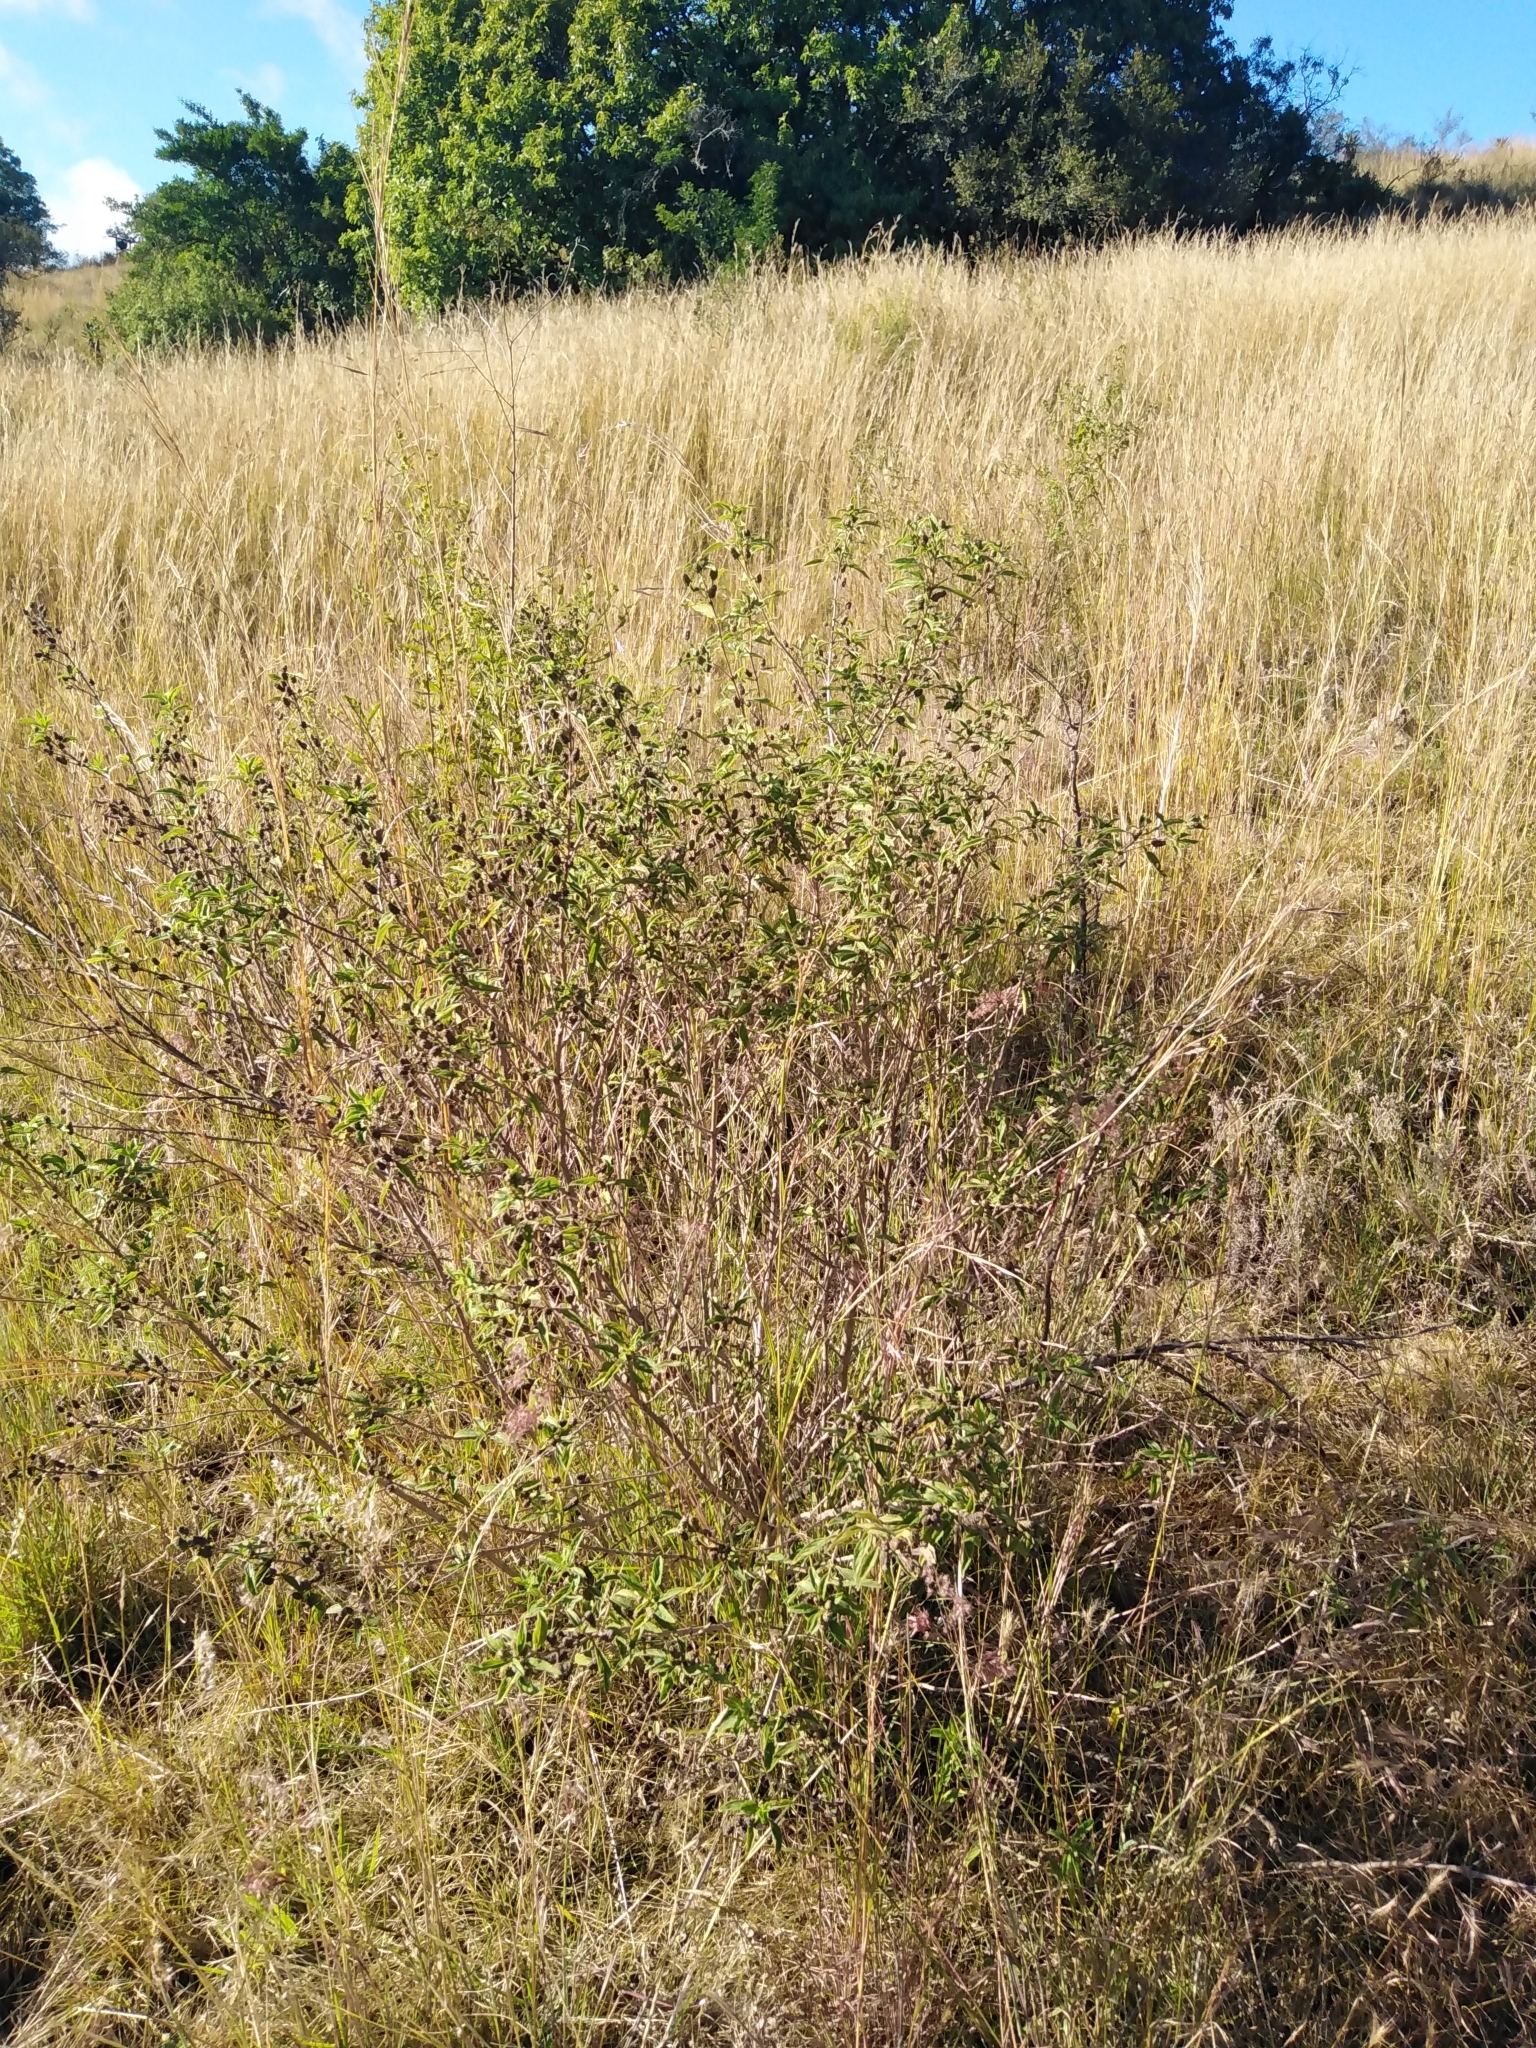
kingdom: Plantae
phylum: Tracheophyta
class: Magnoliopsida
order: Lamiales
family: Verbenaceae
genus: Lippia
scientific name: Lippia javanica
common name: Lemonbush
